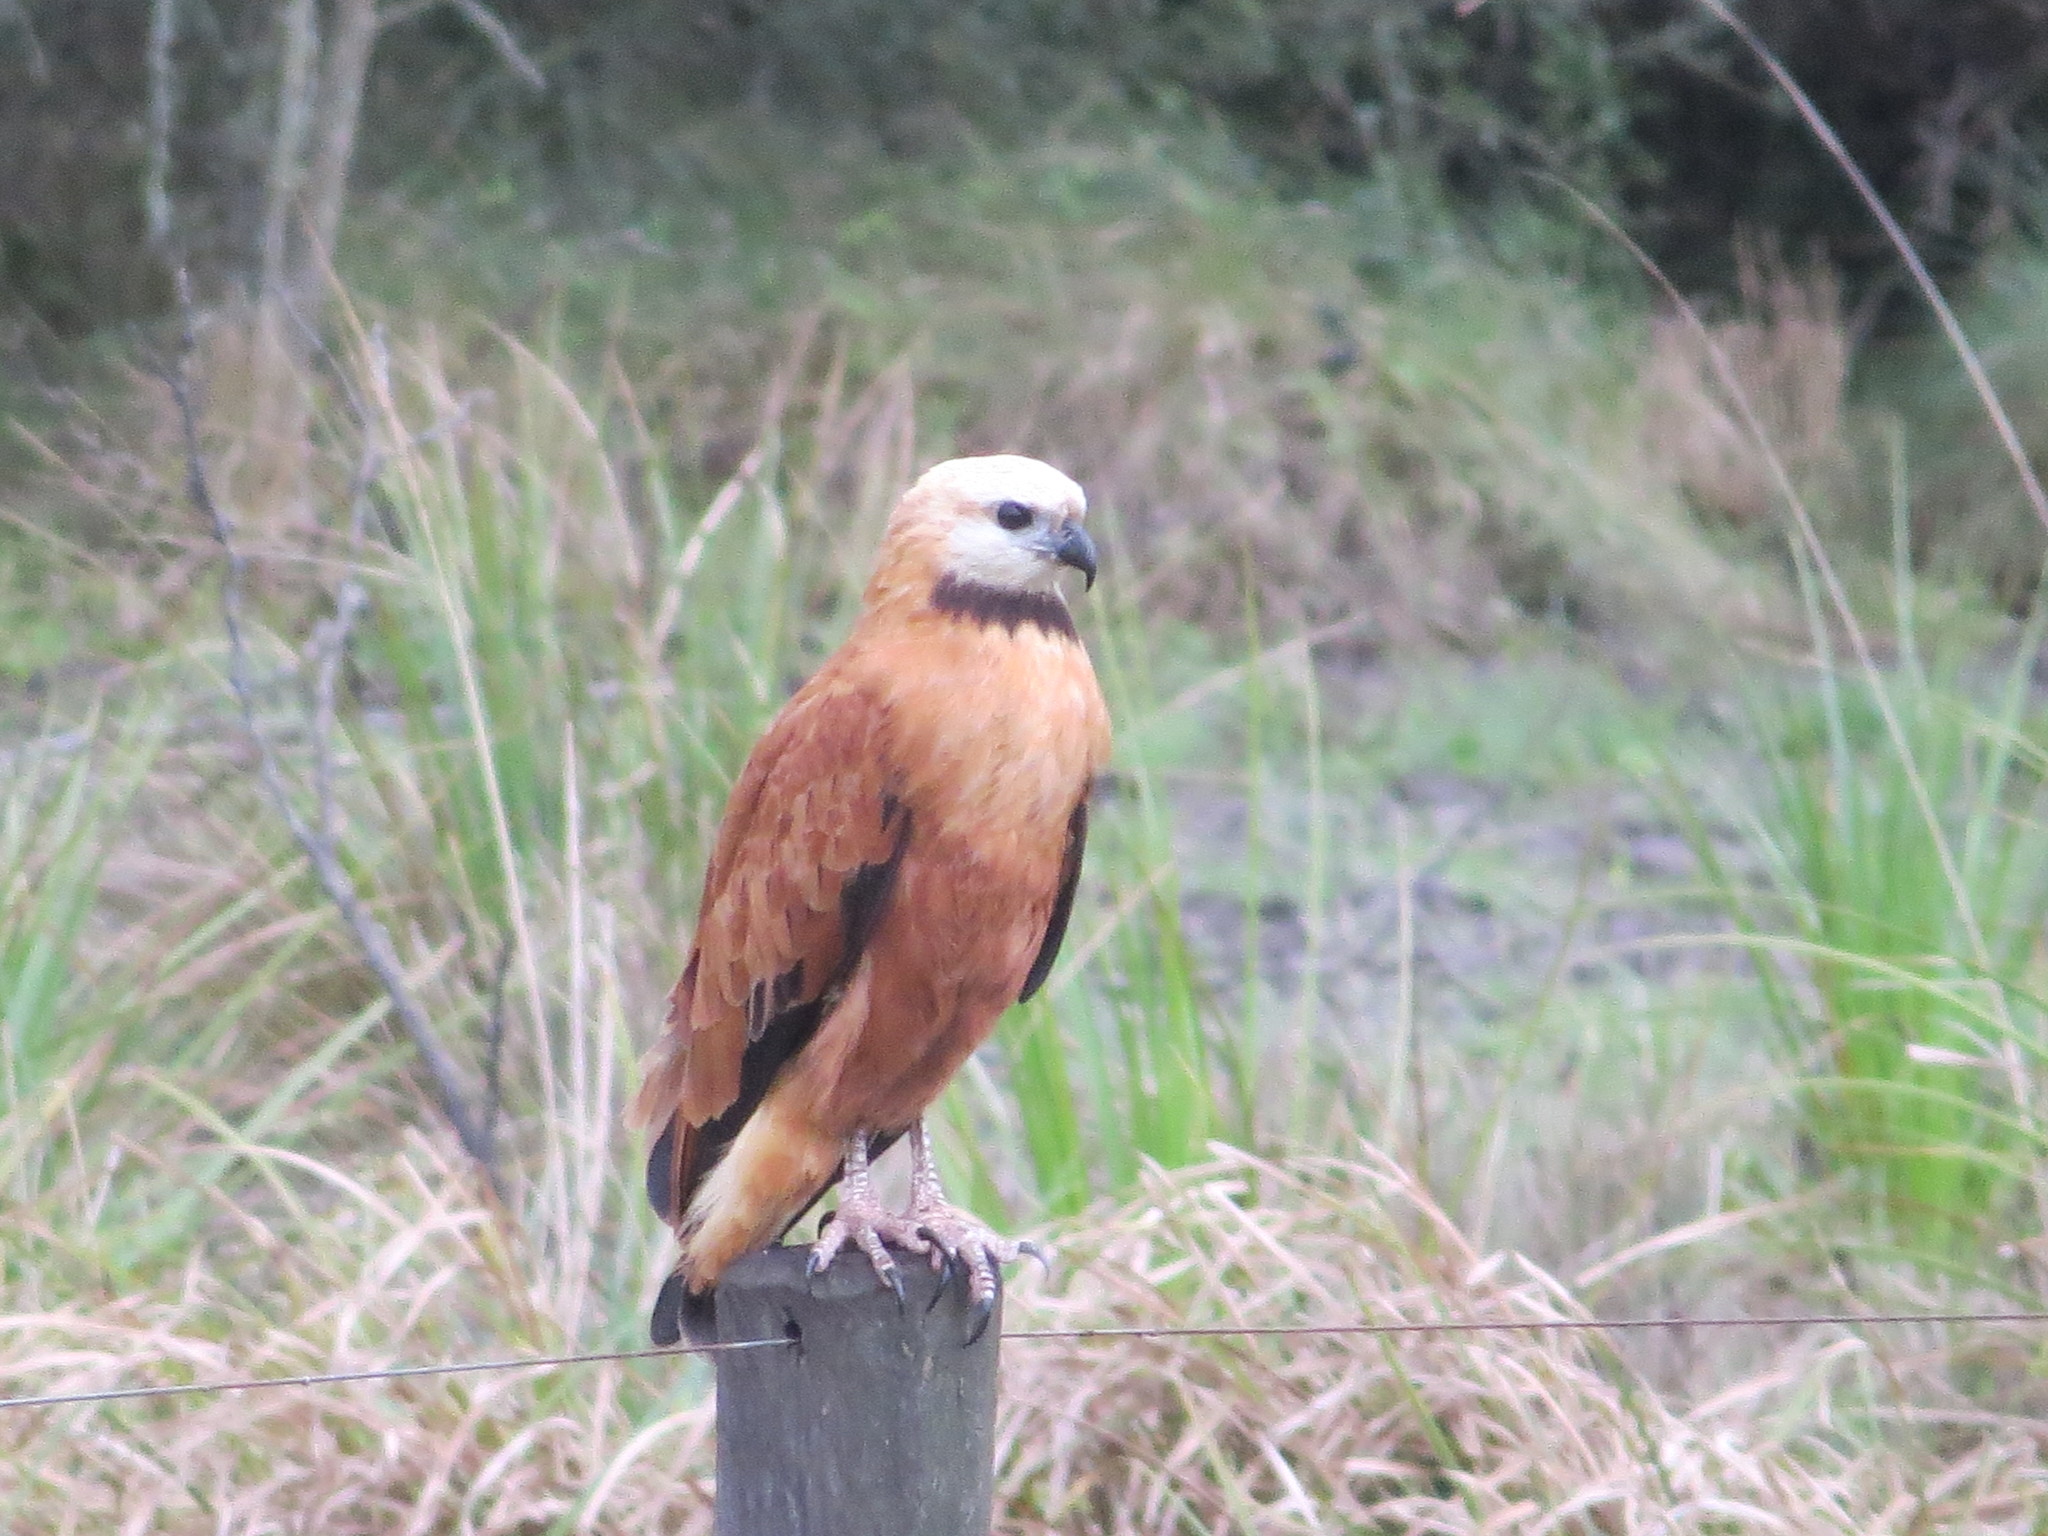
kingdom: Animalia
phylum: Chordata
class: Aves
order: Accipitriformes
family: Accipitridae
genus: Busarellus
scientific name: Busarellus nigricollis
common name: Black-collared hawk
